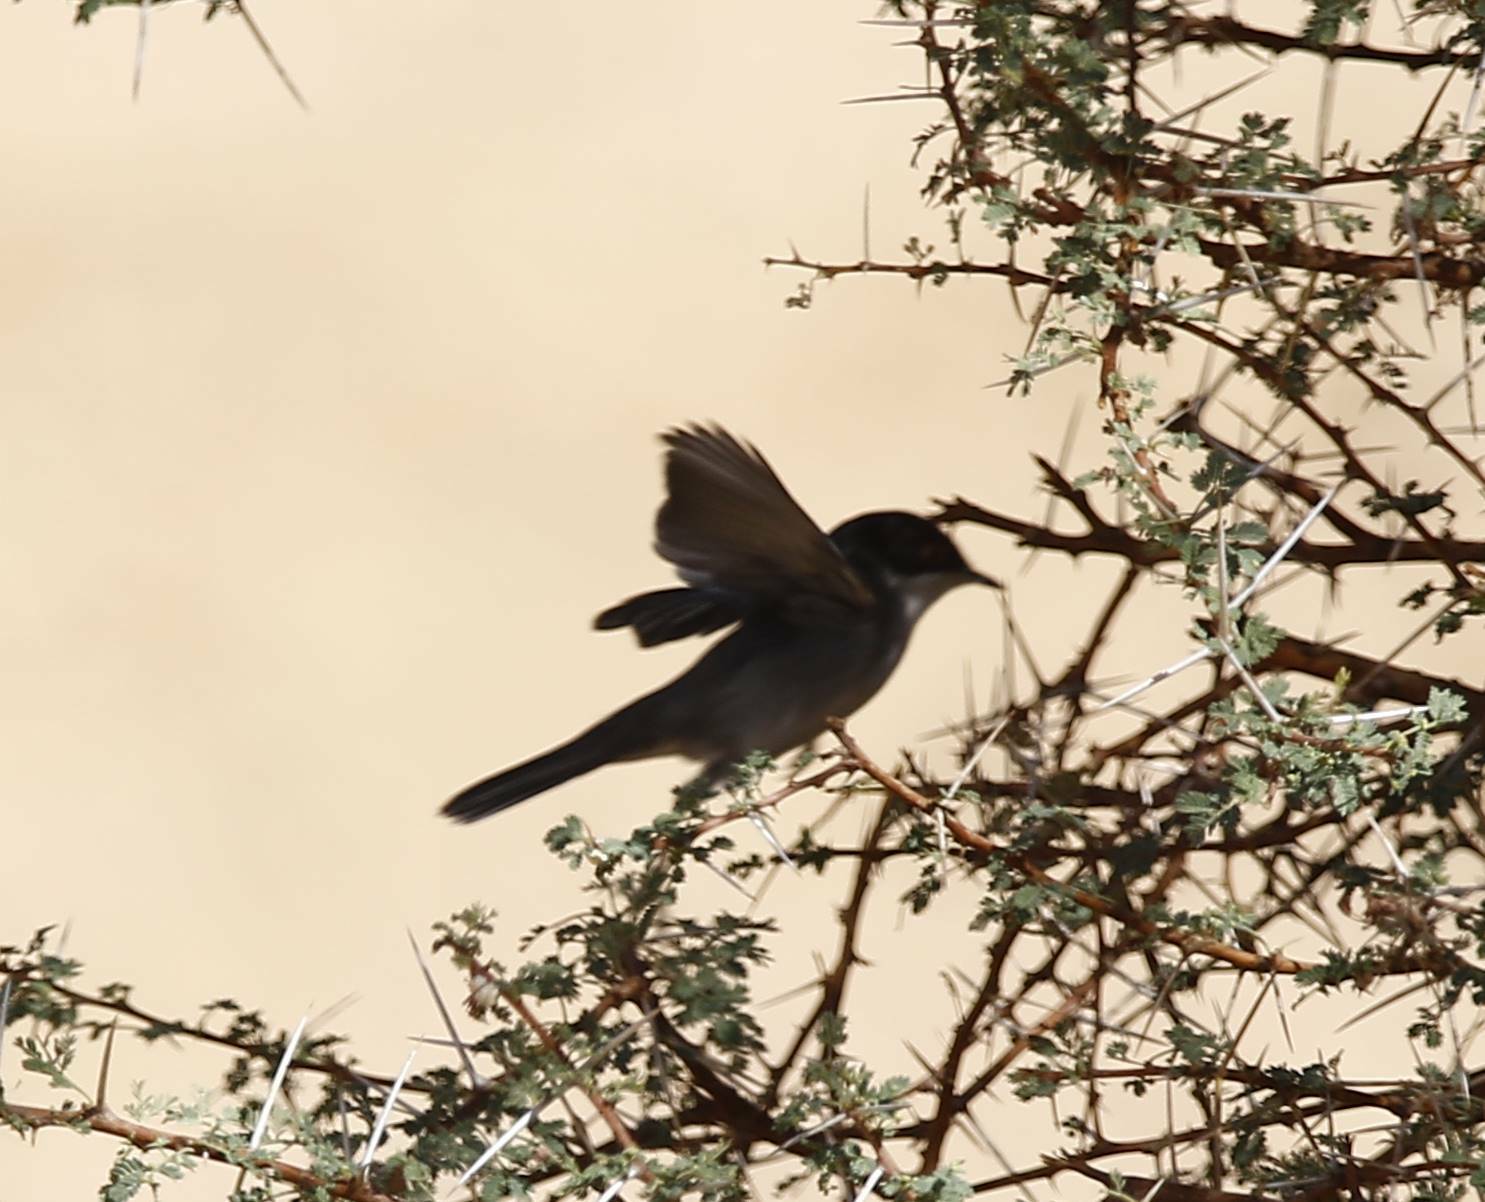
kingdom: Animalia
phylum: Chordata
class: Aves
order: Passeriformes
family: Sylviidae
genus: Curruca
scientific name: Curruca melanocephala
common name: Sardinian warbler
